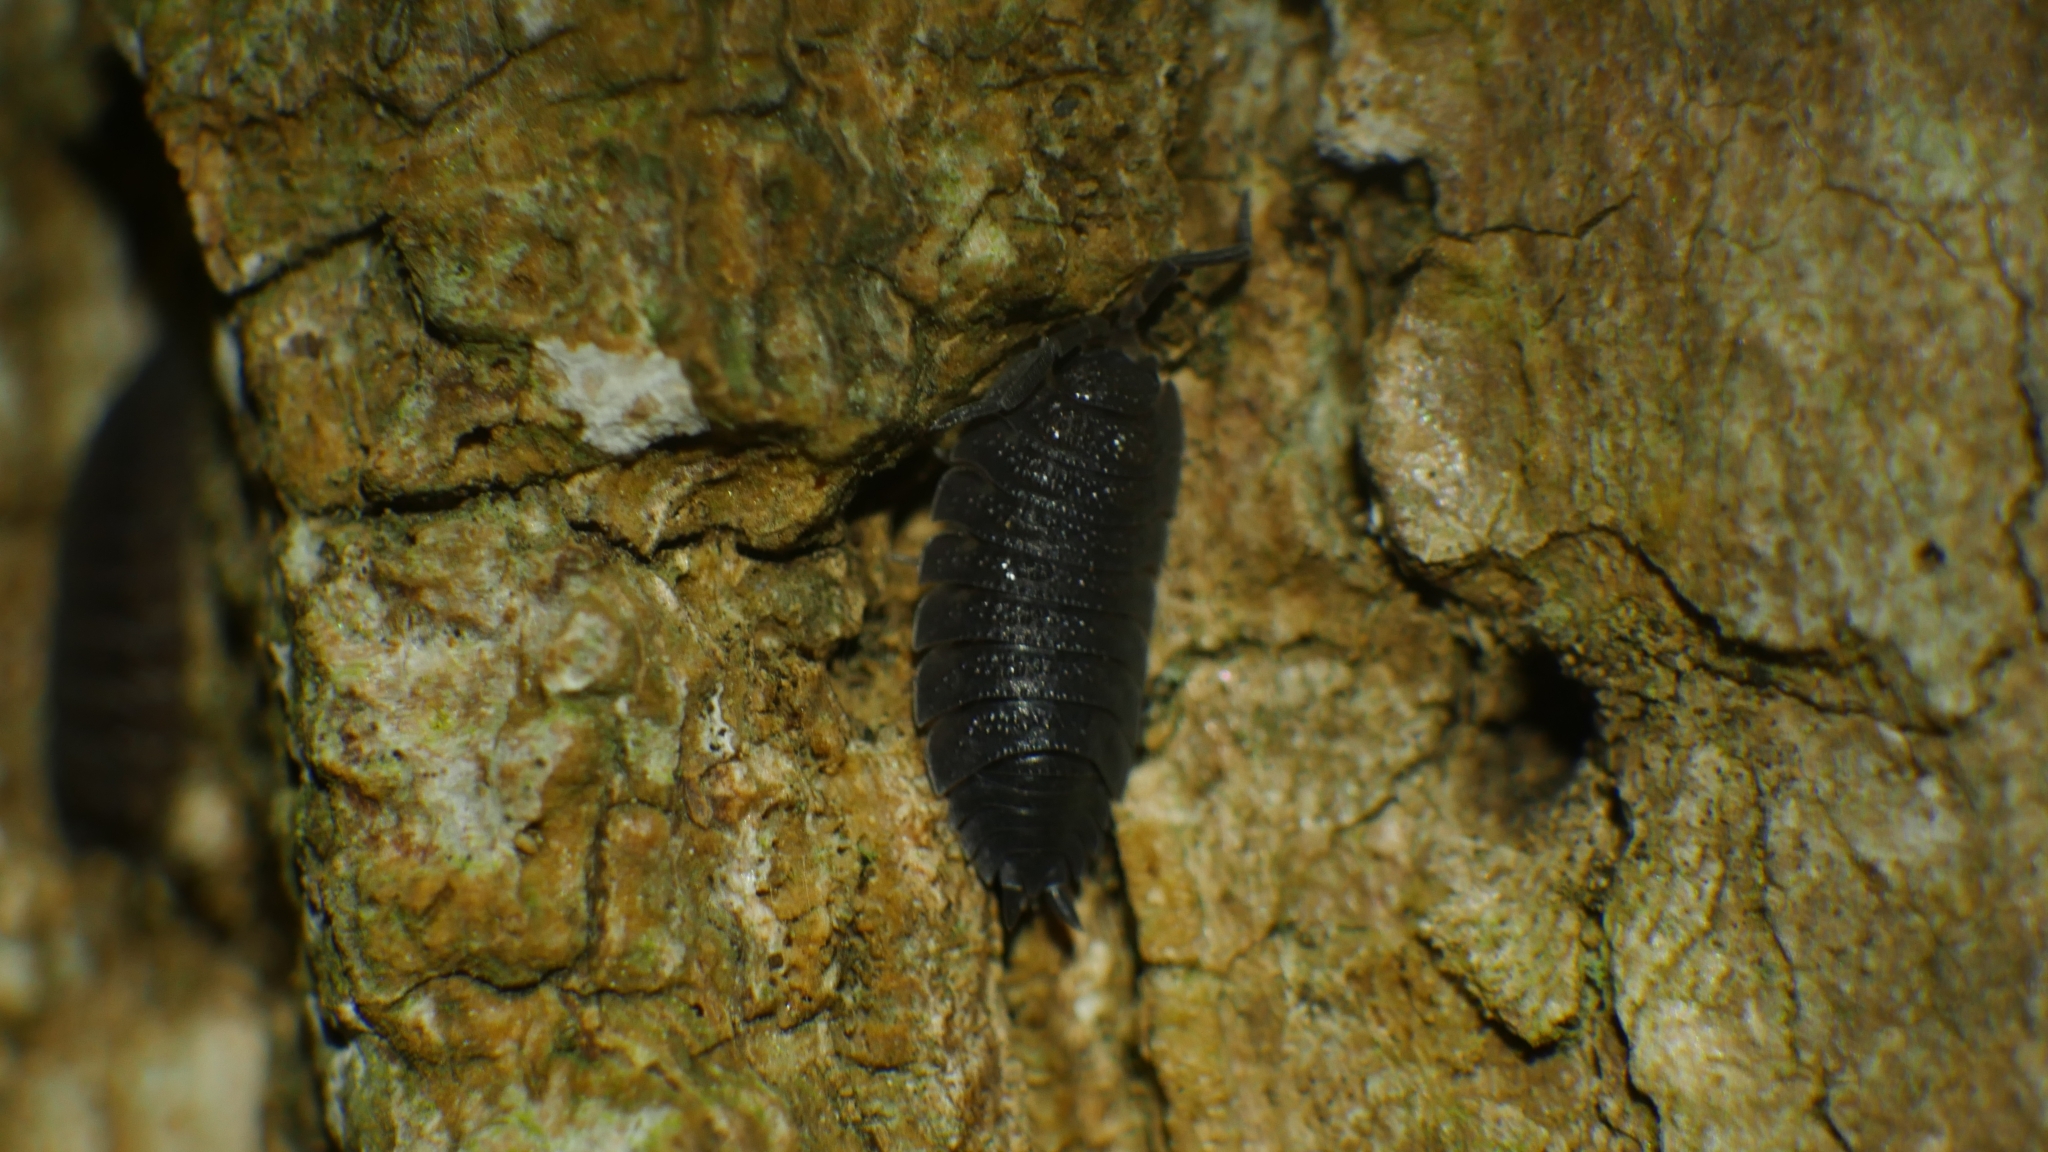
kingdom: Animalia
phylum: Arthropoda
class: Malacostraca
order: Isopoda
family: Porcellionidae
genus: Porcellio
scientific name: Porcellio scaber
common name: Common rough woodlouse
